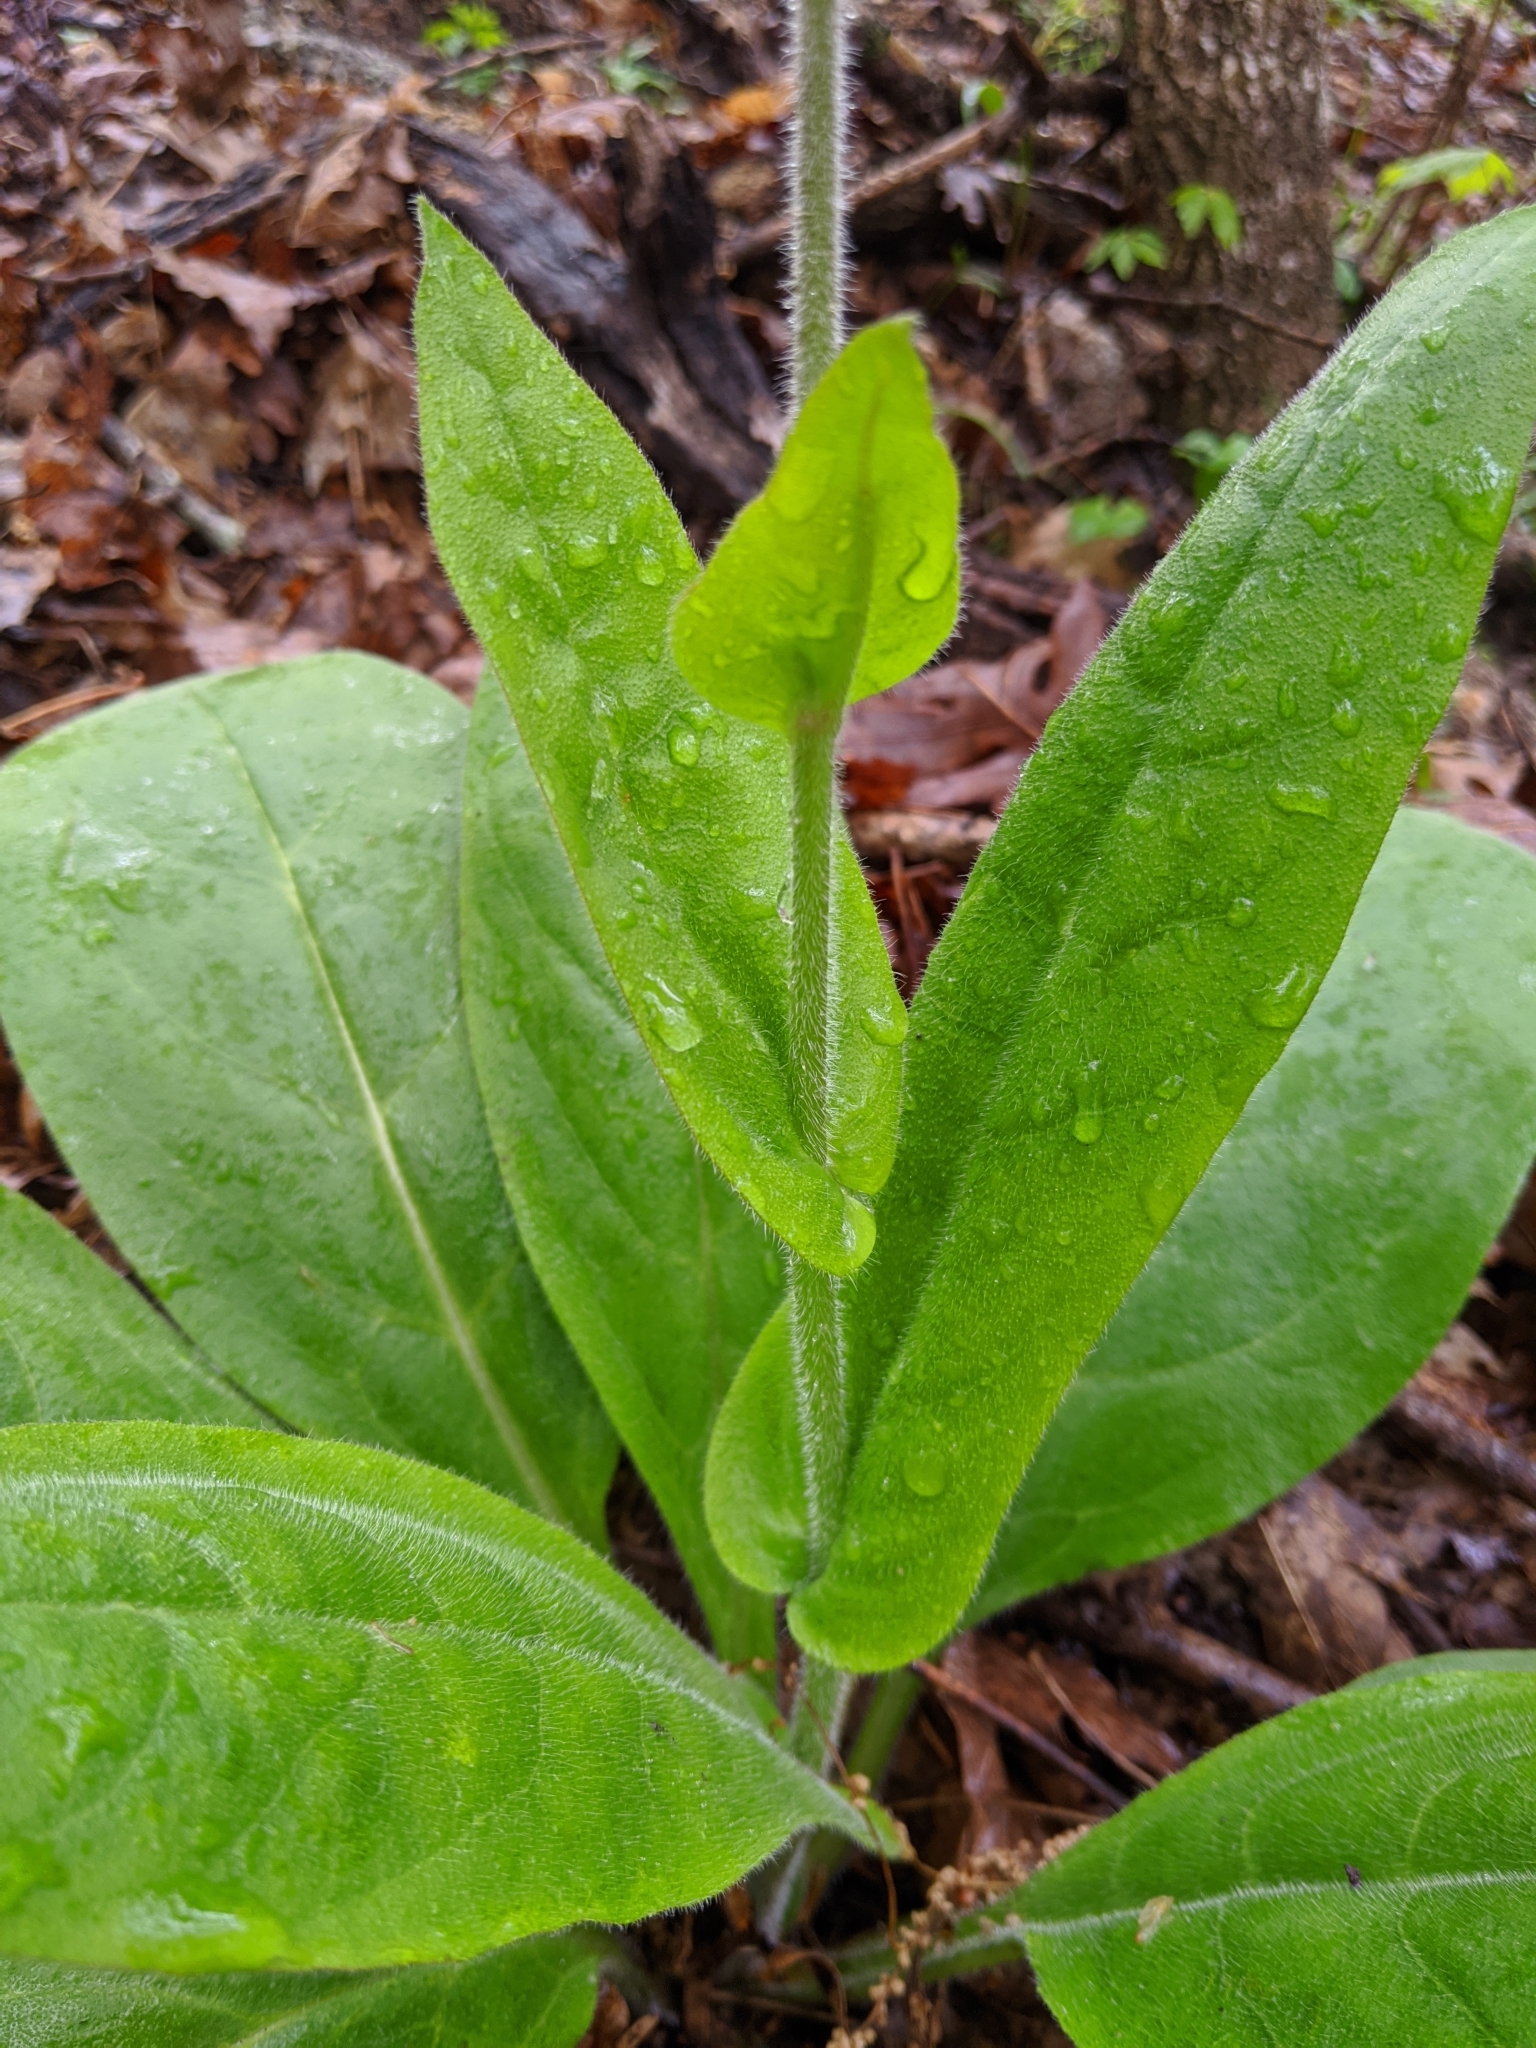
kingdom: Plantae
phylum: Tracheophyta
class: Magnoliopsida
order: Boraginales
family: Boraginaceae
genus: Andersonglossum
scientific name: Andersonglossum virginianum
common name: Wild comfrey
